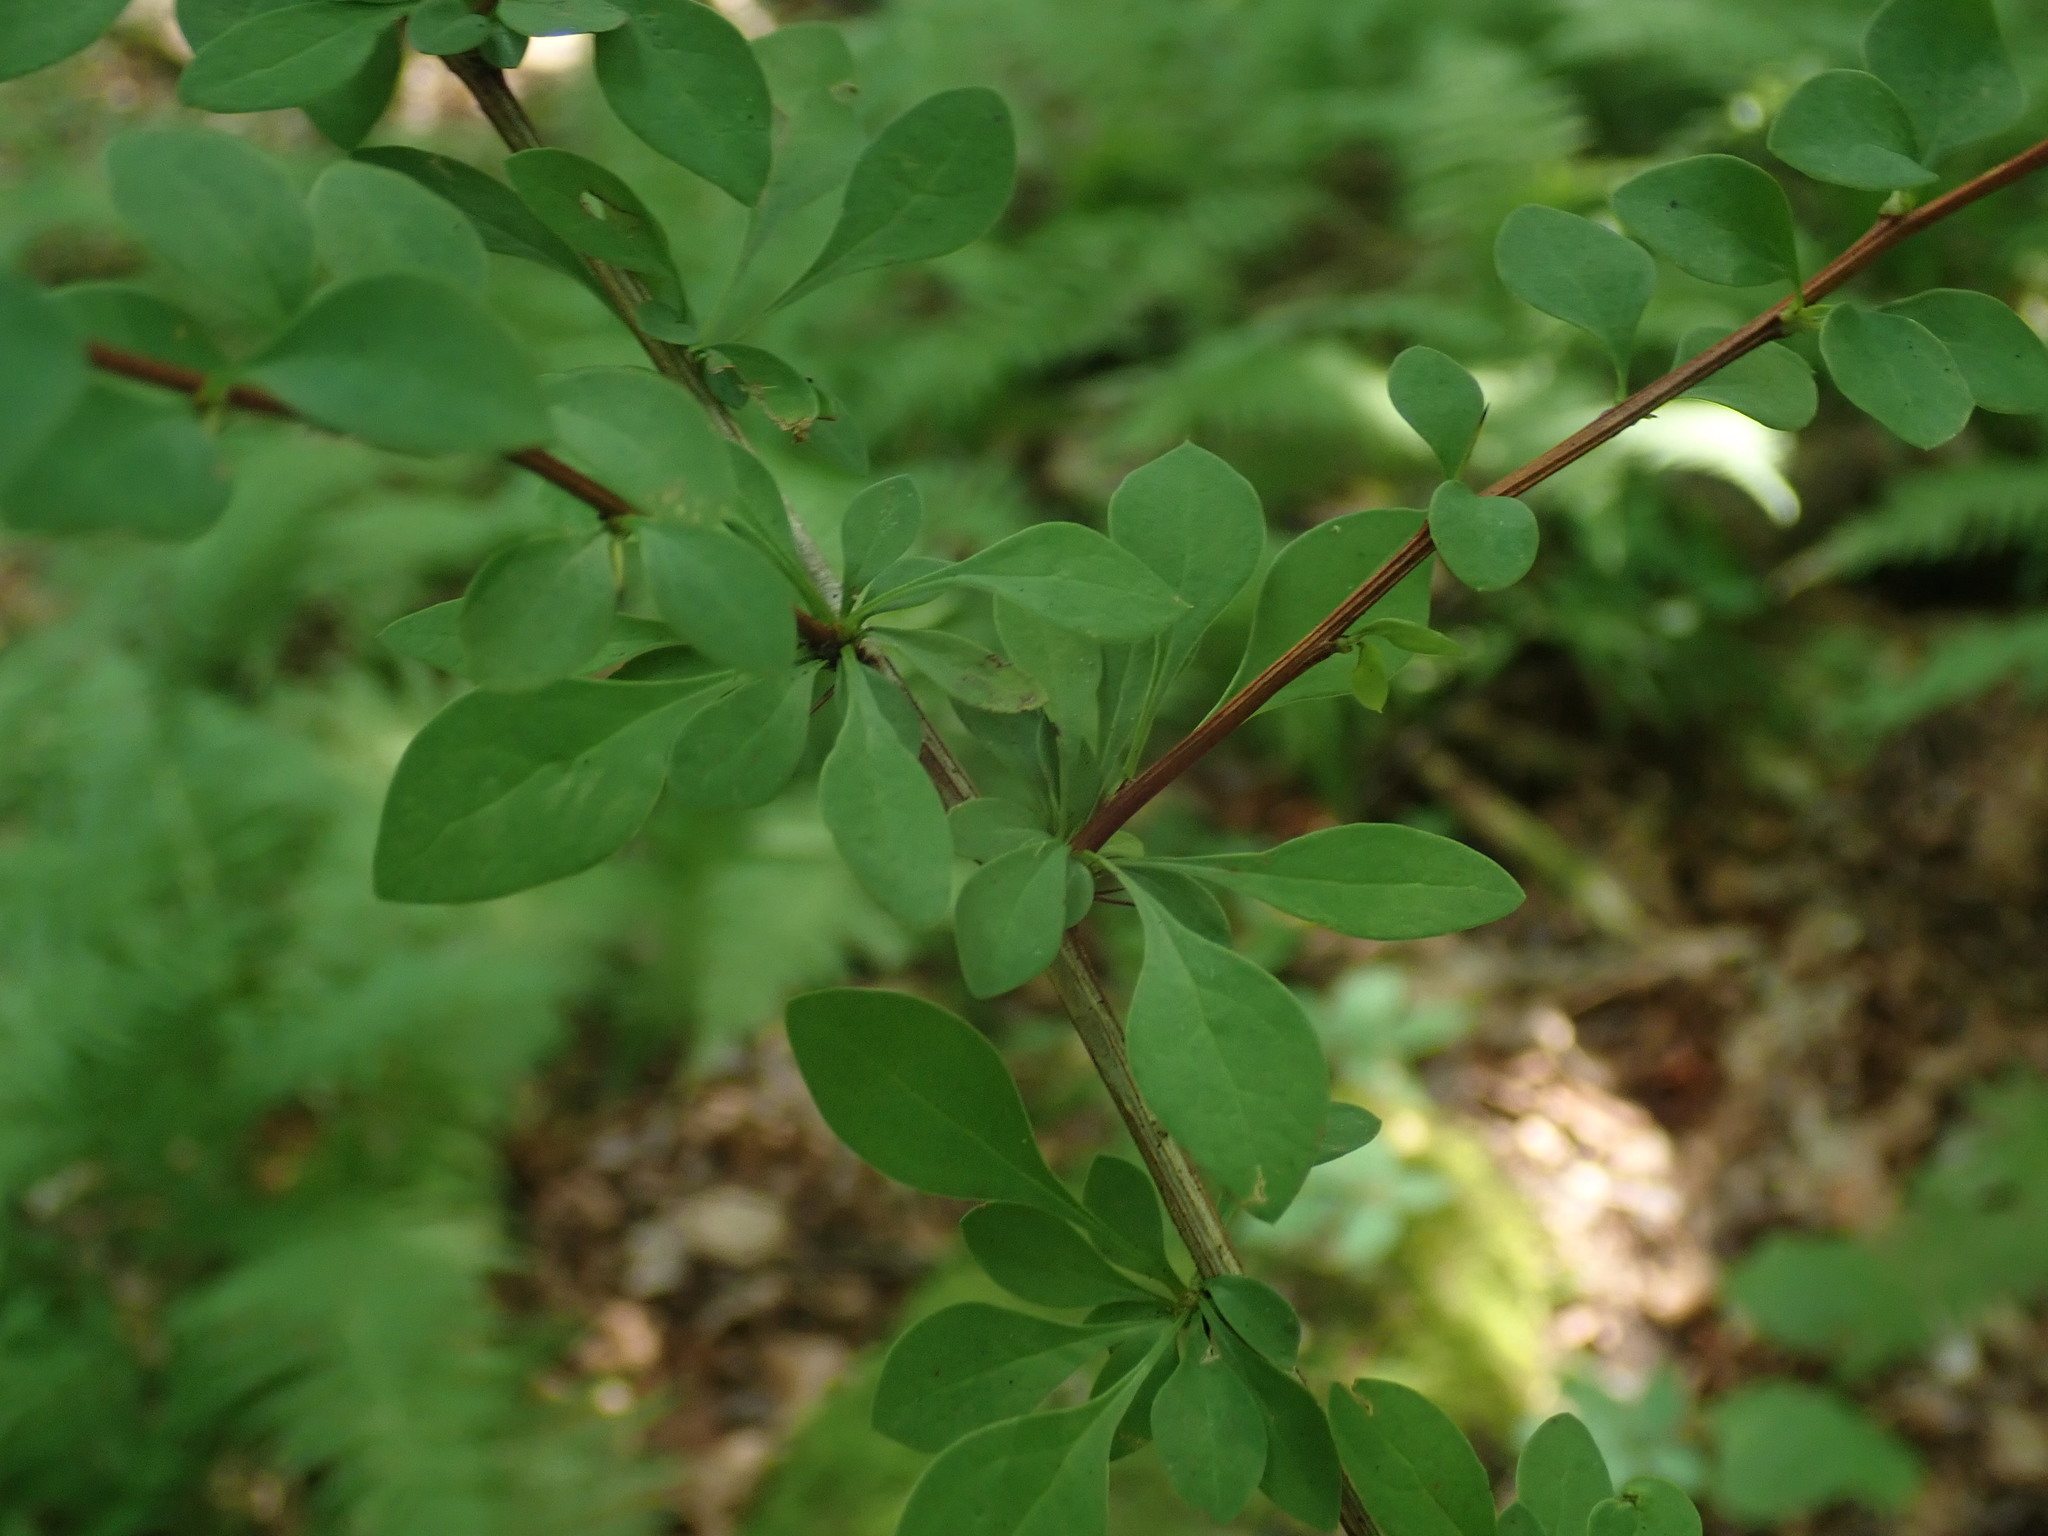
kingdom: Plantae
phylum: Tracheophyta
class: Magnoliopsida
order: Ranunculales
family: Berberidaceae
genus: Berberis
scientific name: Berberis thunbergii
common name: Japanese barberry
